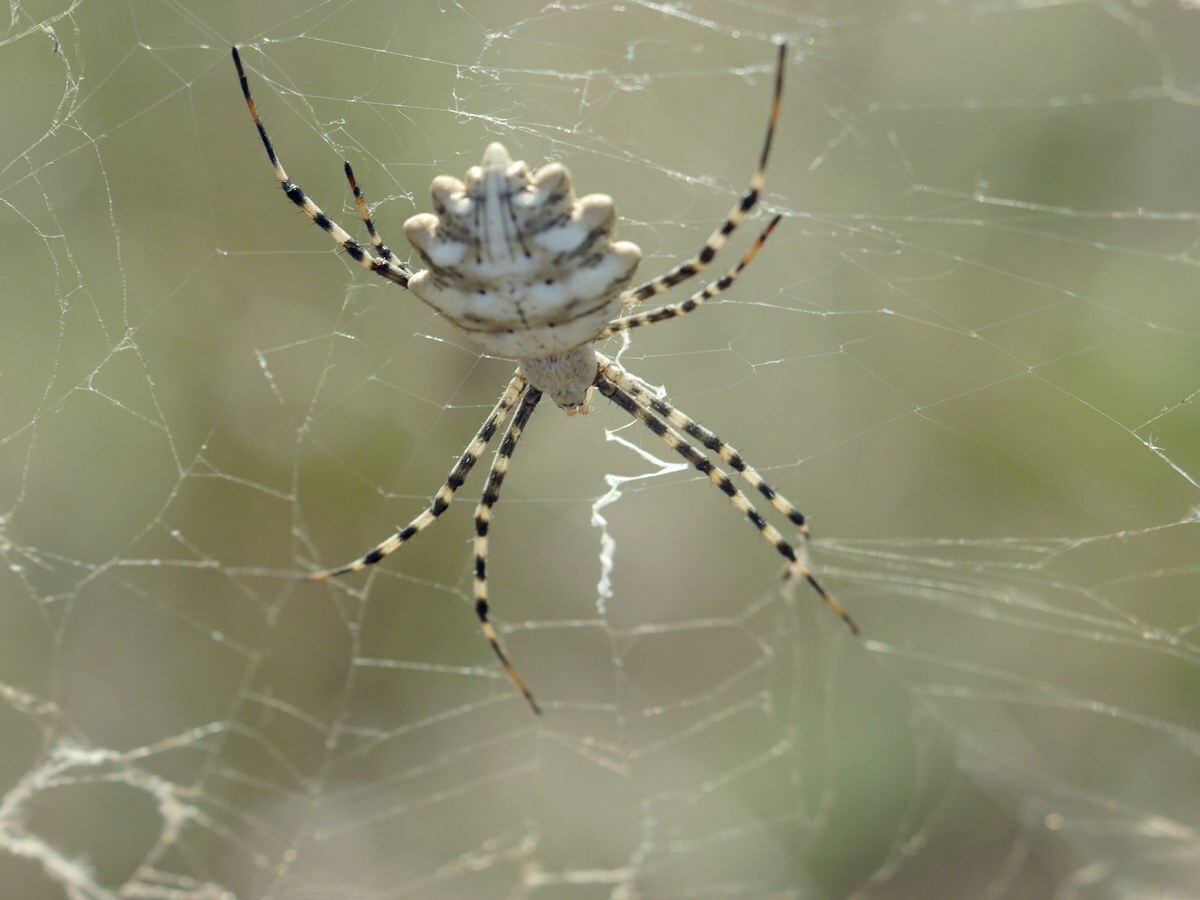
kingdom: Animalia
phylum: Arthropoda
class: Arachnida
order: Araneae
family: Araneidae
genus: Argiope
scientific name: Argiope lobata
